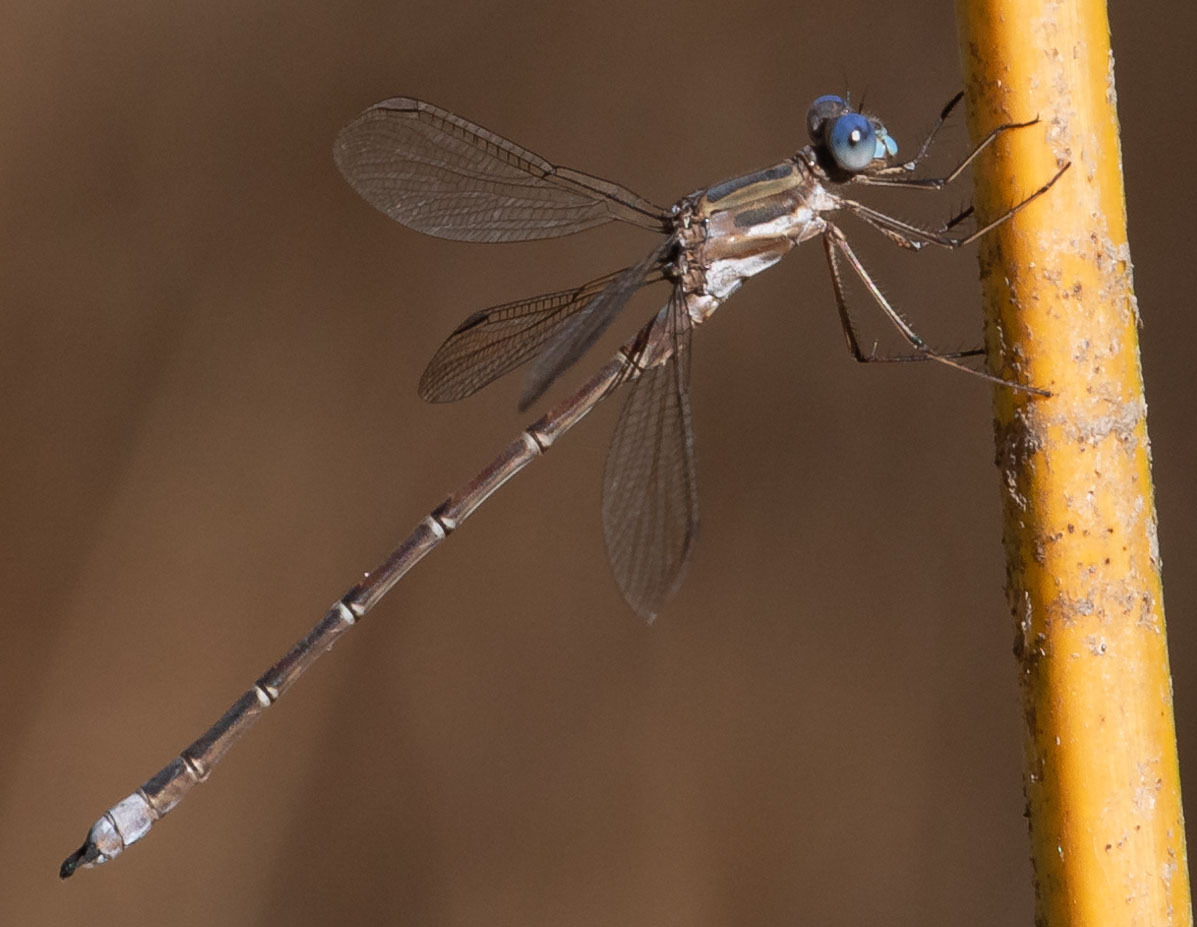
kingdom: Animalia
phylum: Arthropoda
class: Insecta
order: Odonata
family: Lestidae
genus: Archilestes
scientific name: Archilestes californicus
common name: California spreadwing
